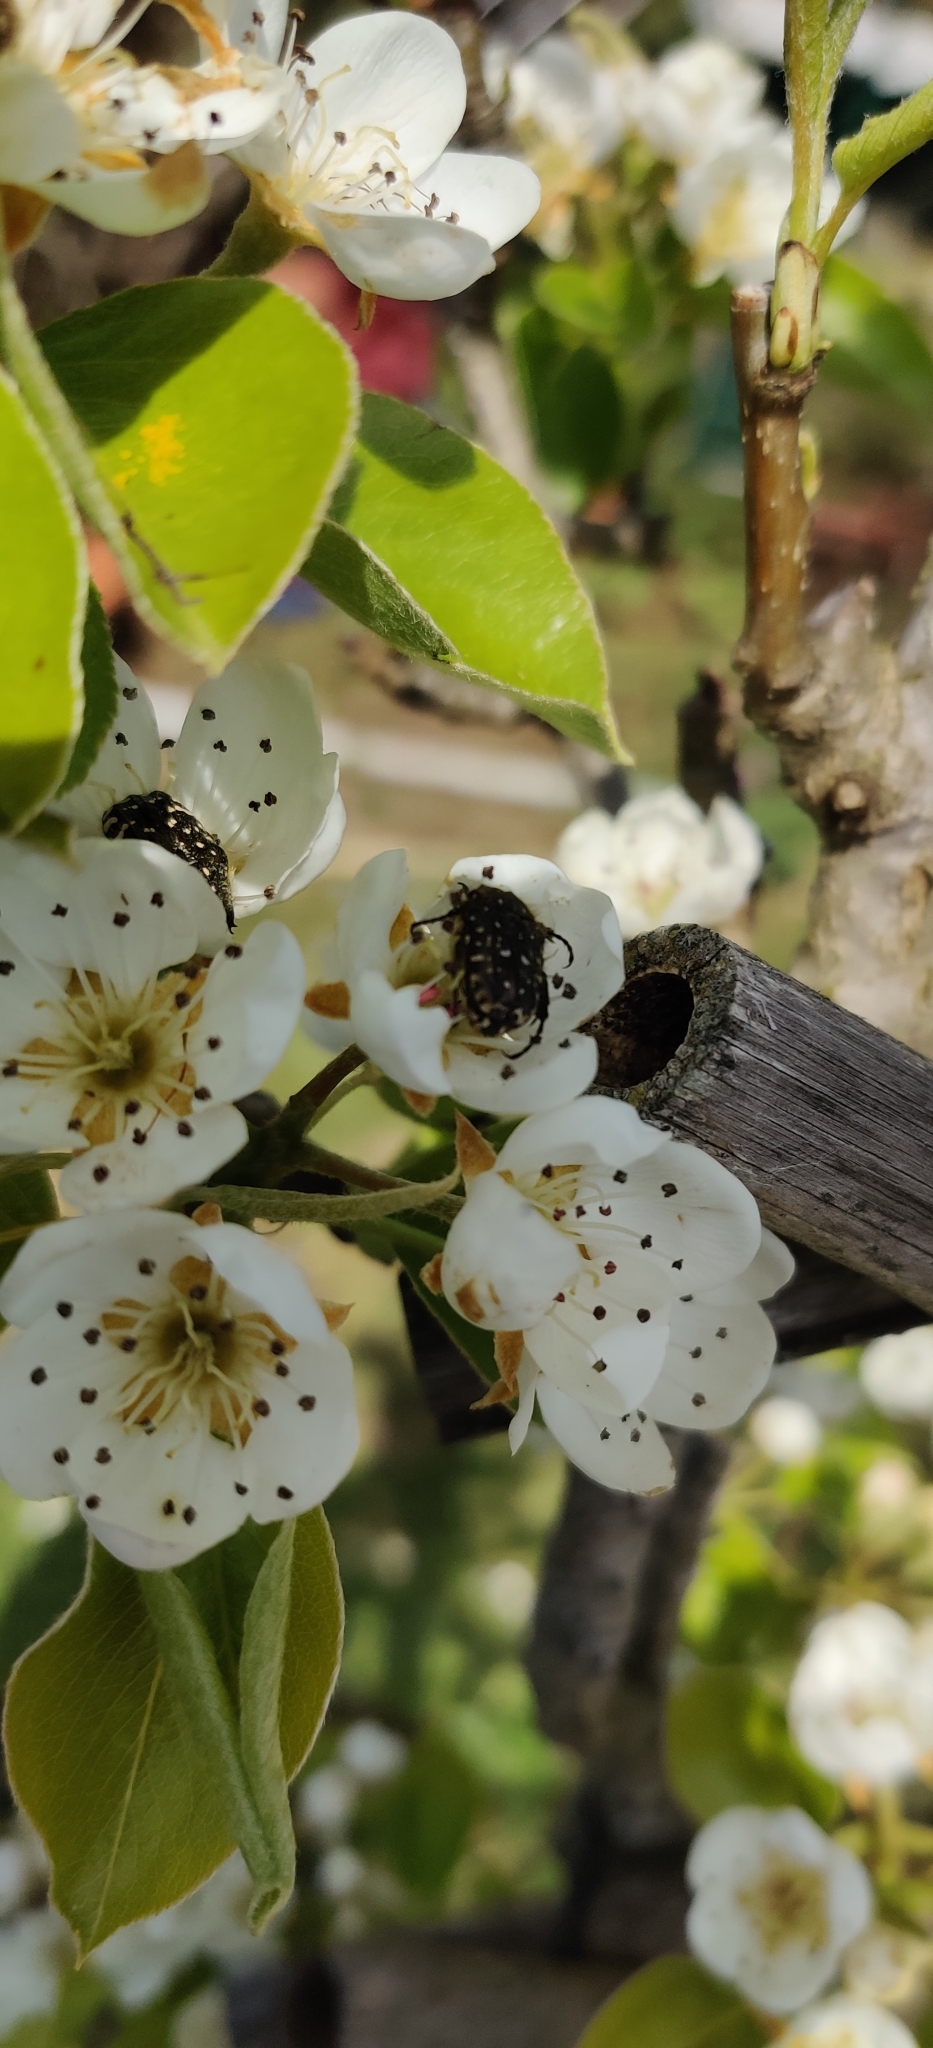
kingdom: Animalia
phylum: Arthropoda
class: Insecta
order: Coleoptera
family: Scarabaeidae
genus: Oxythyrea
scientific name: Oxythyrea funesta
